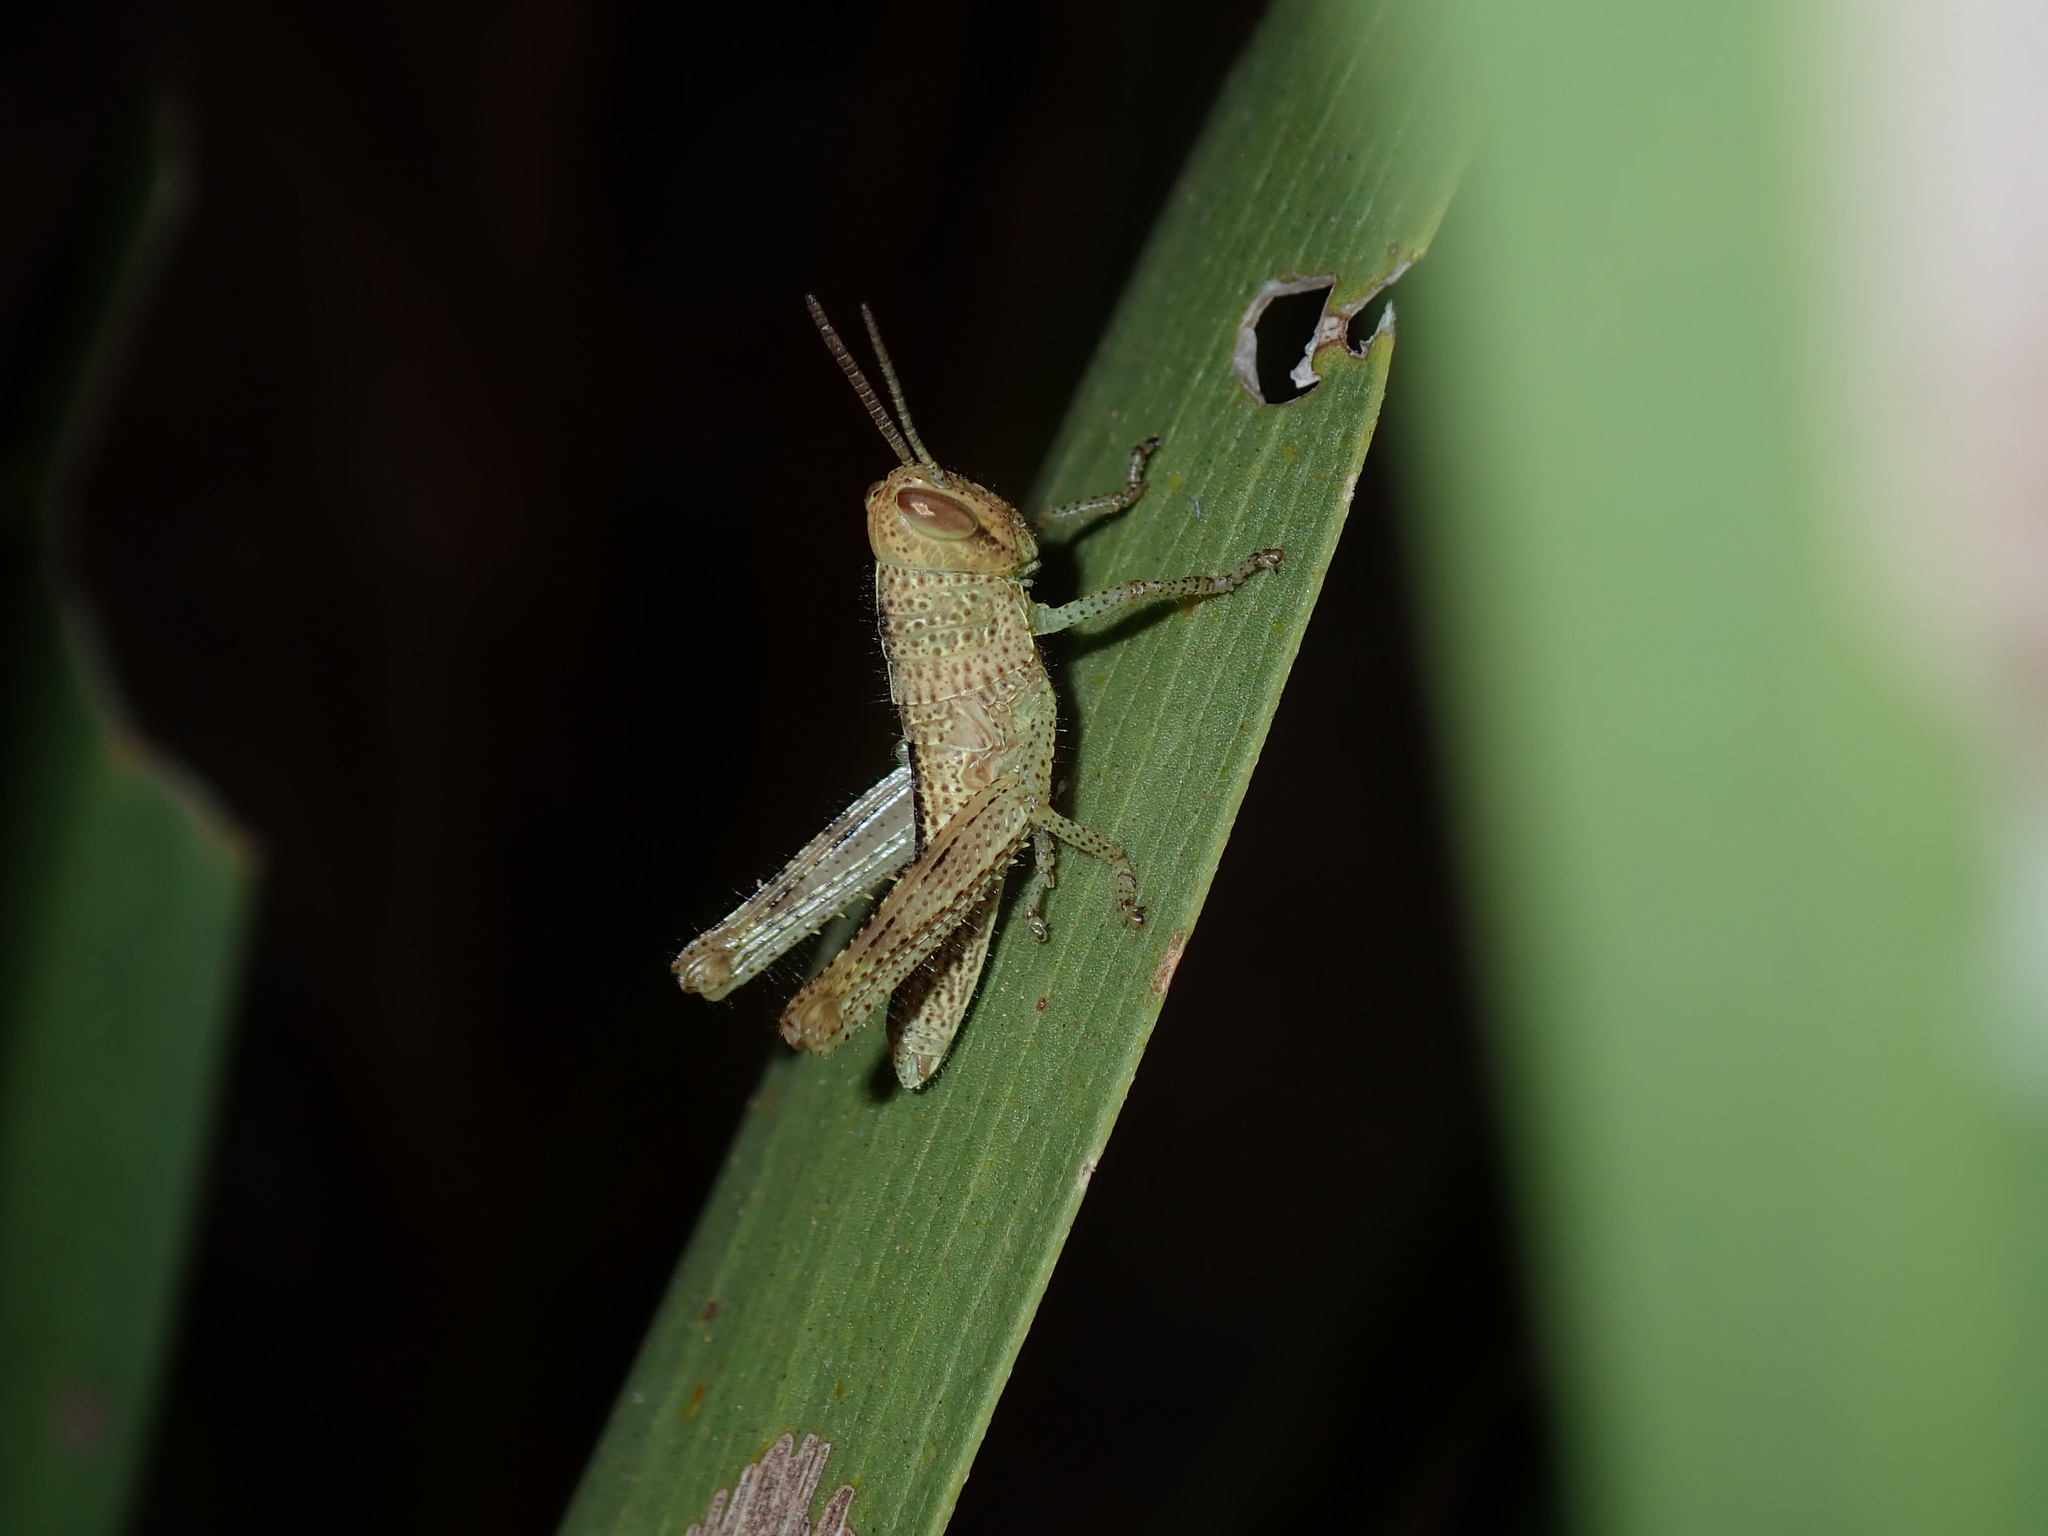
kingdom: Animalia
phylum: Arthropoda
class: Insecta
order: Orthoptera
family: Acrididae
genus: Valanga
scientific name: Valanga irregularis
